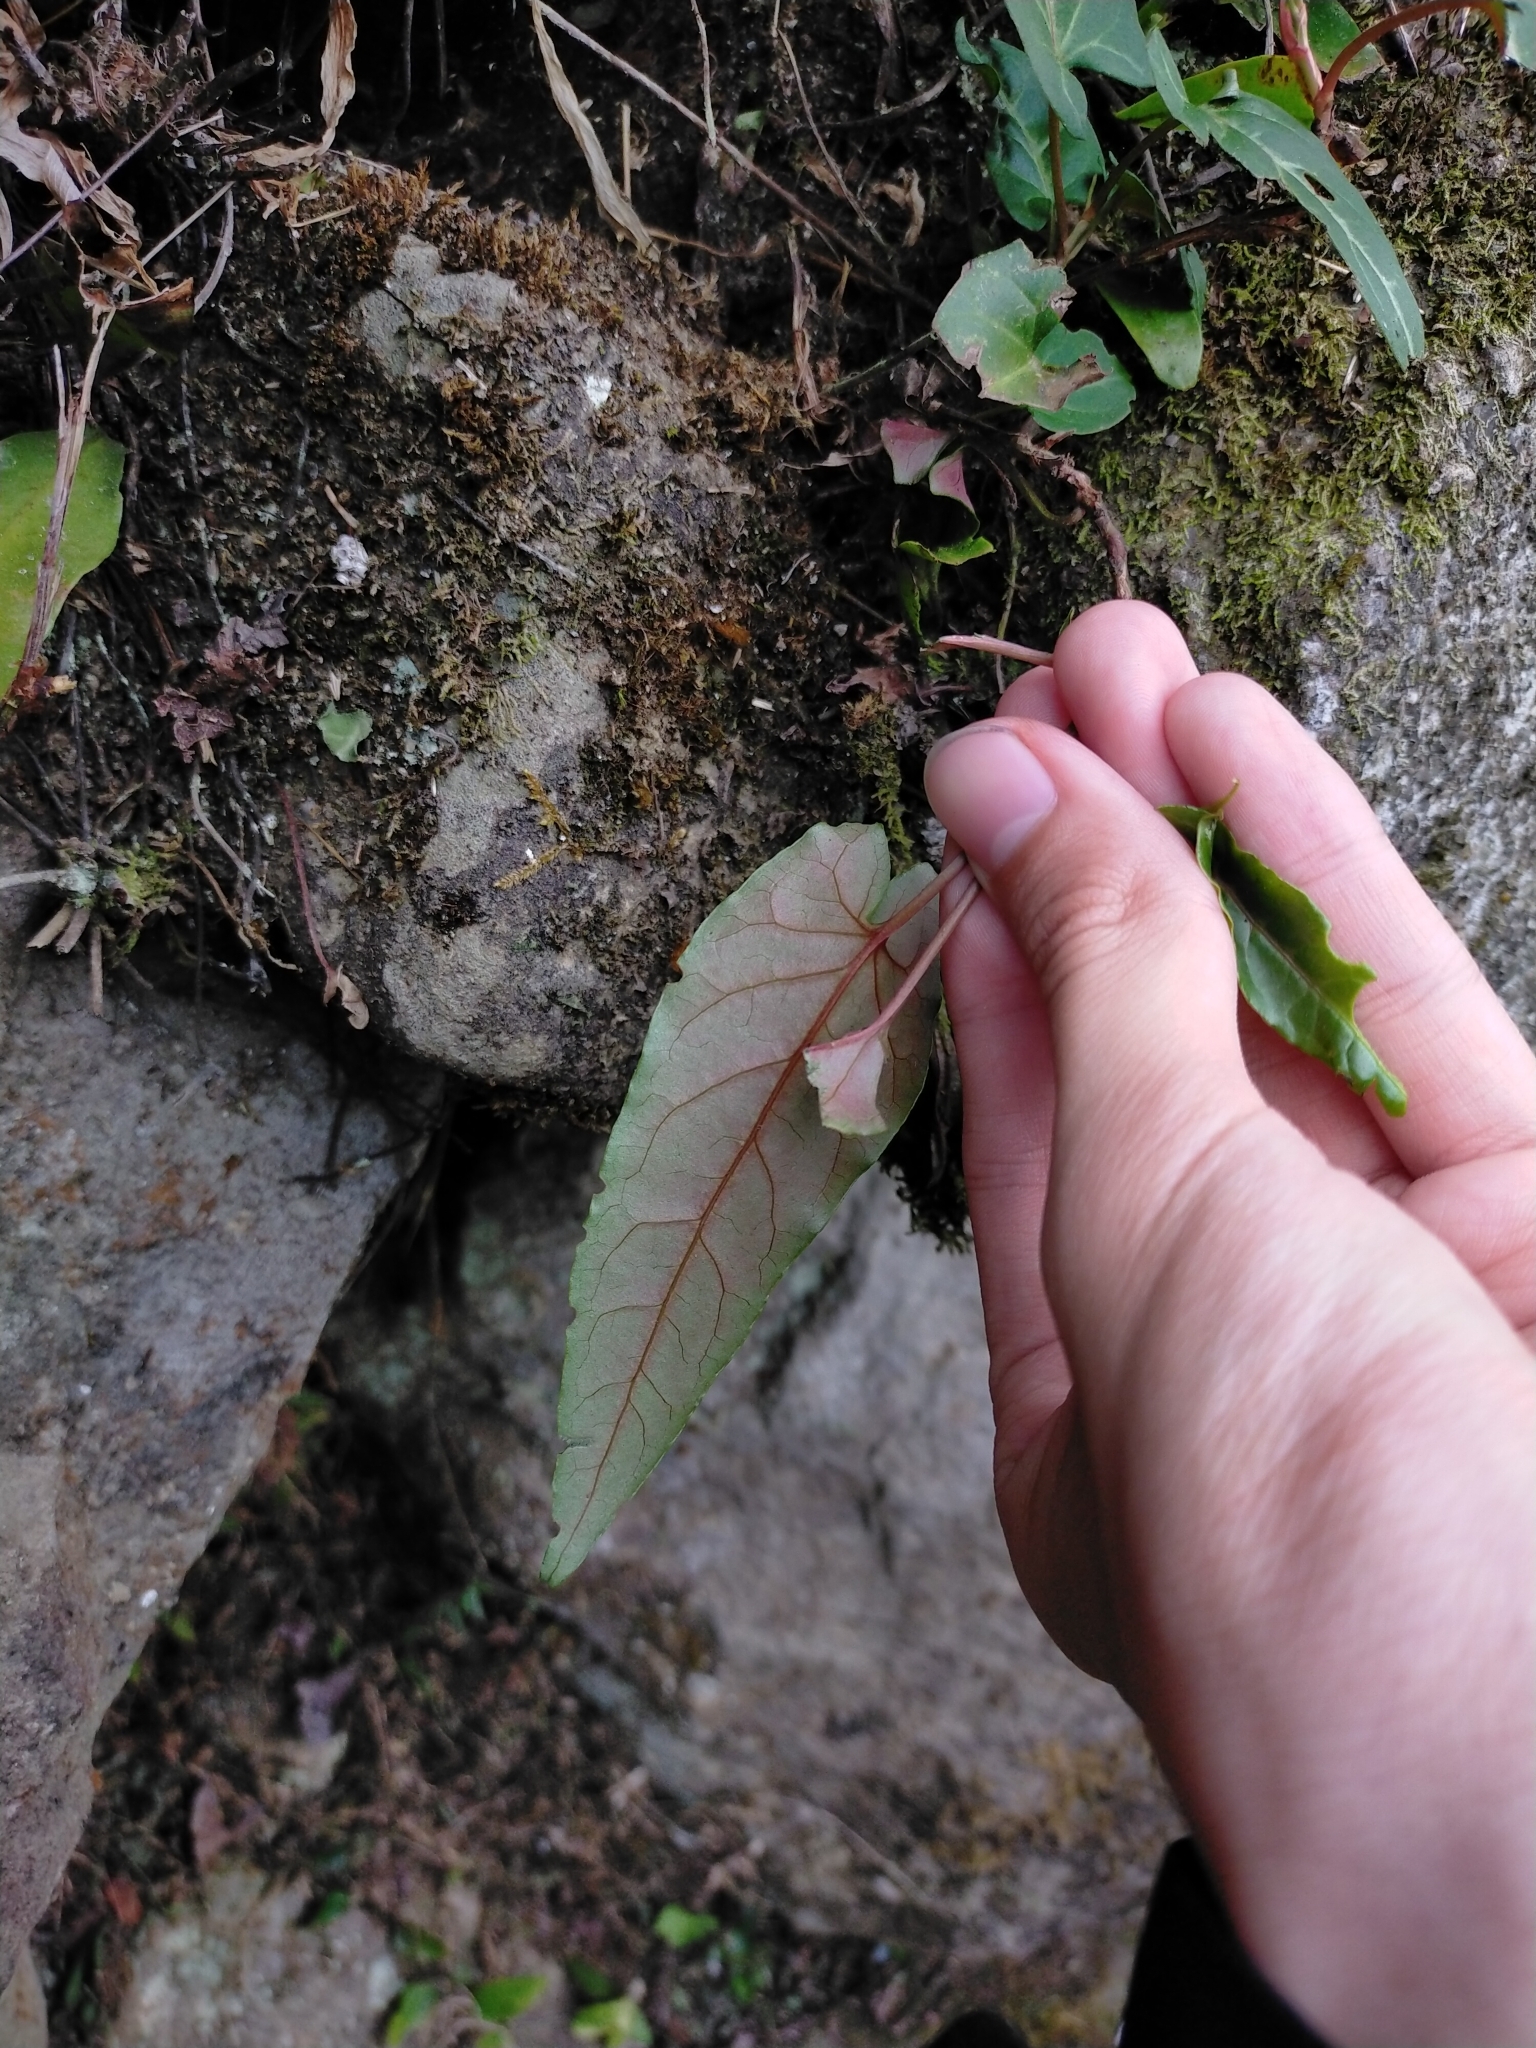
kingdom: Plantae
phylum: Tracheophyta
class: Magnoliopsida
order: Caryophyllales
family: Polygonaceae
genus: Reynoutria
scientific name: Reynoutria multiflora
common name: Chinese fleeceflower
